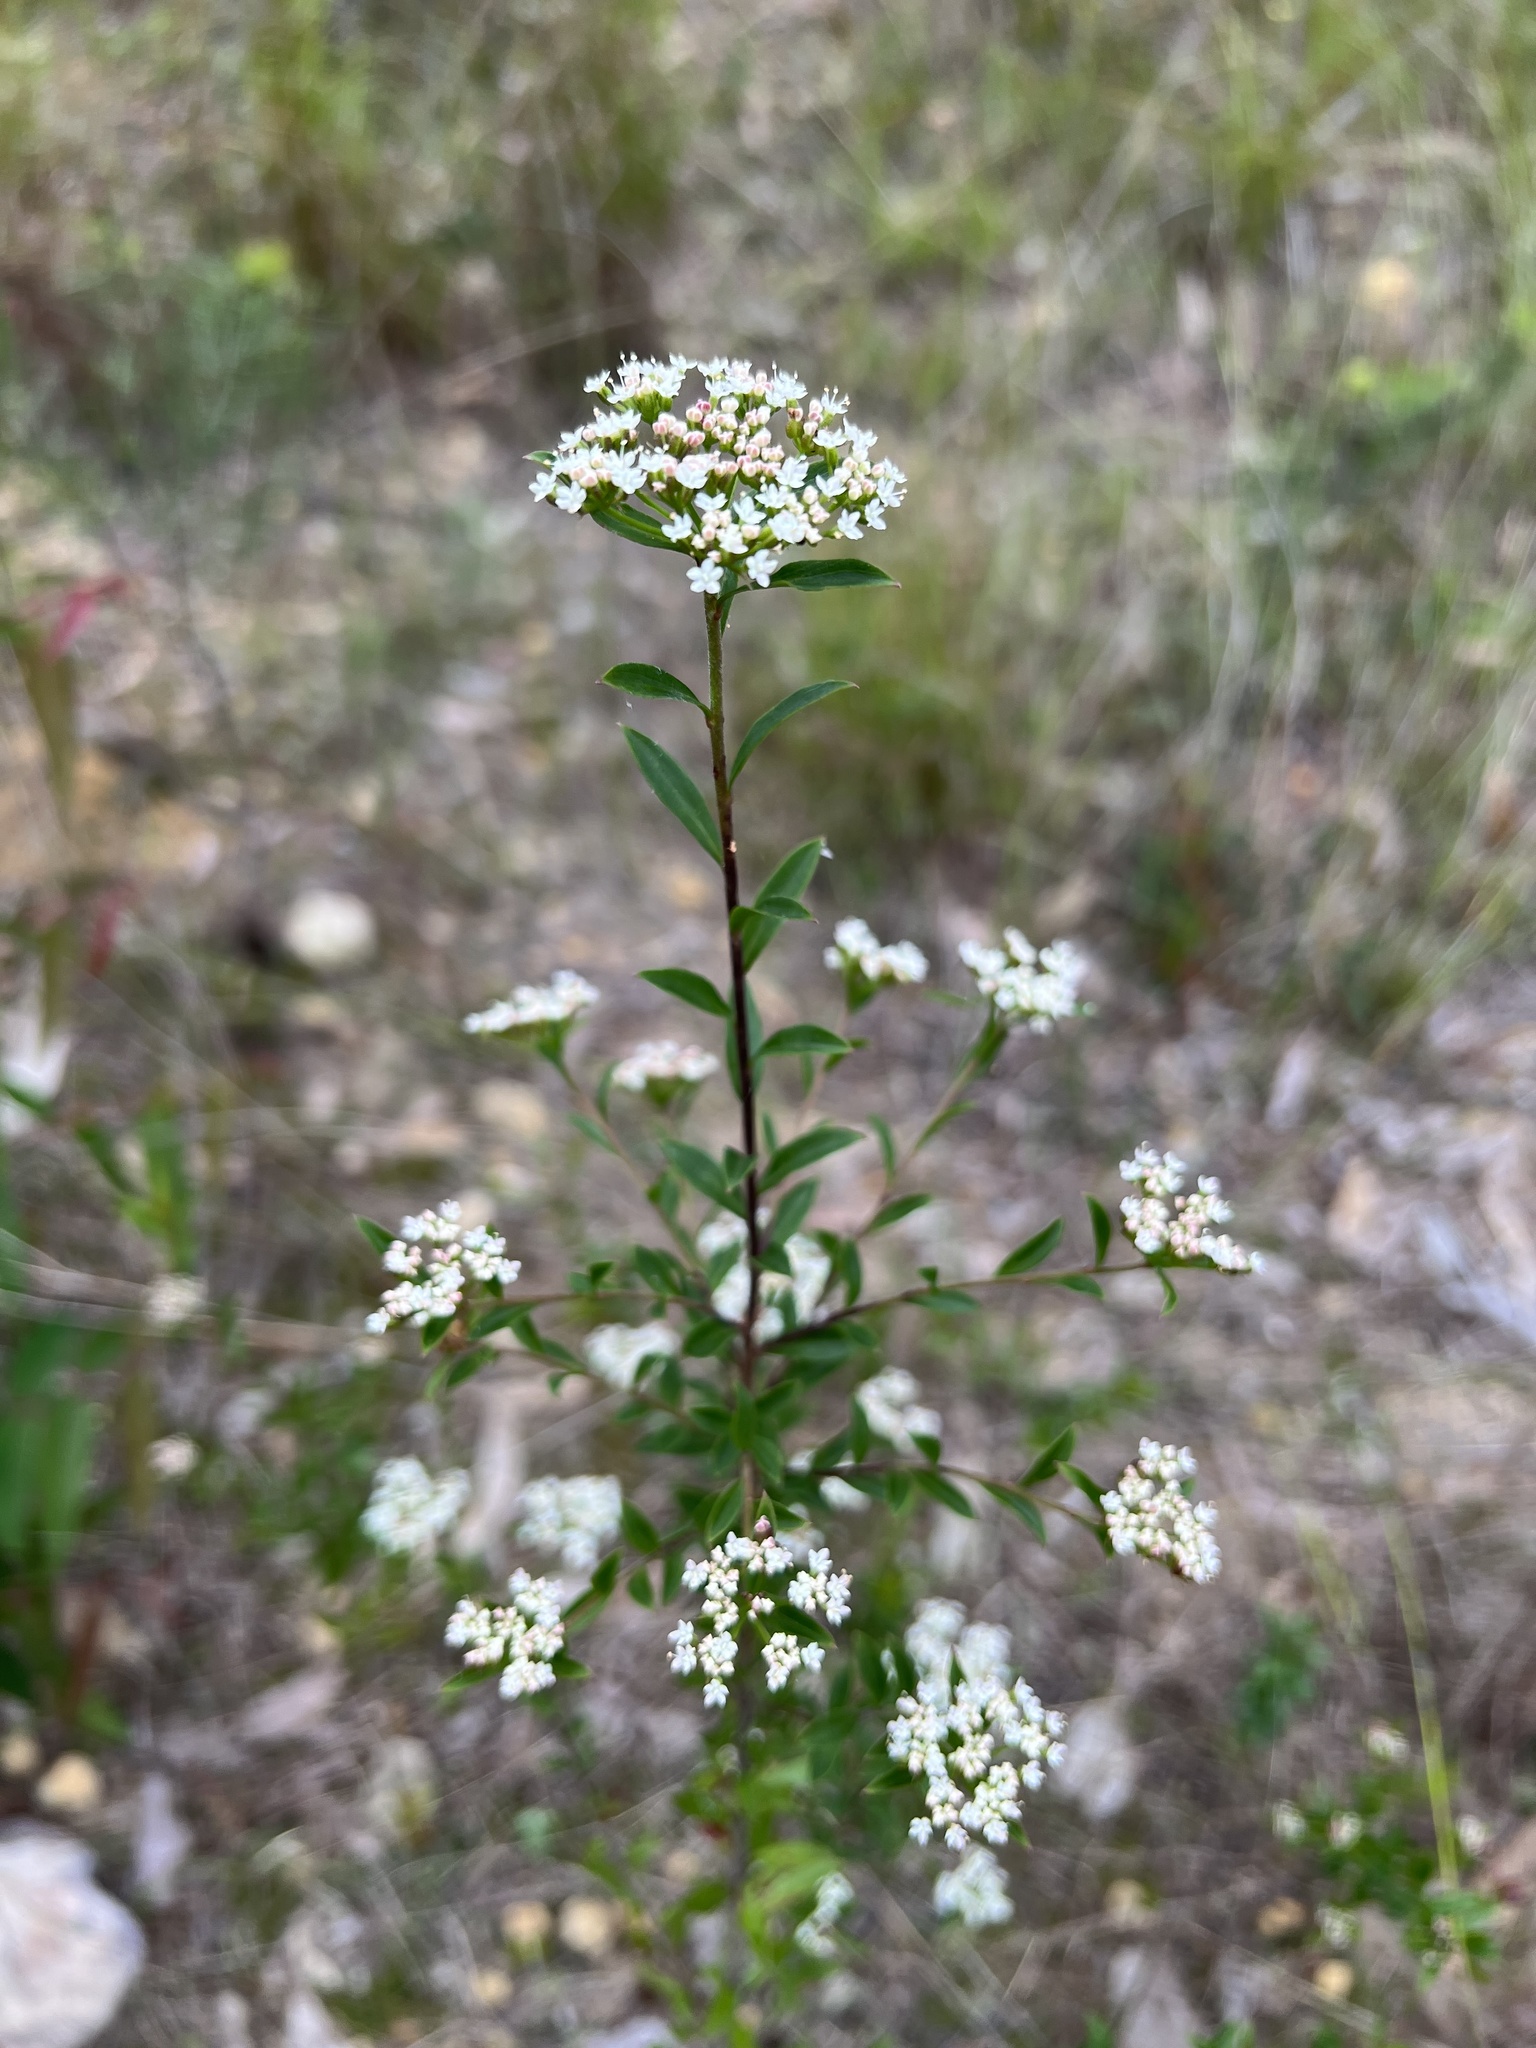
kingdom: Plantae
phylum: Tracheophyta
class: Magnoliopsida
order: Apiales
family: Apiaceae
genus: Platysace
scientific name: Platysace lanceolata
